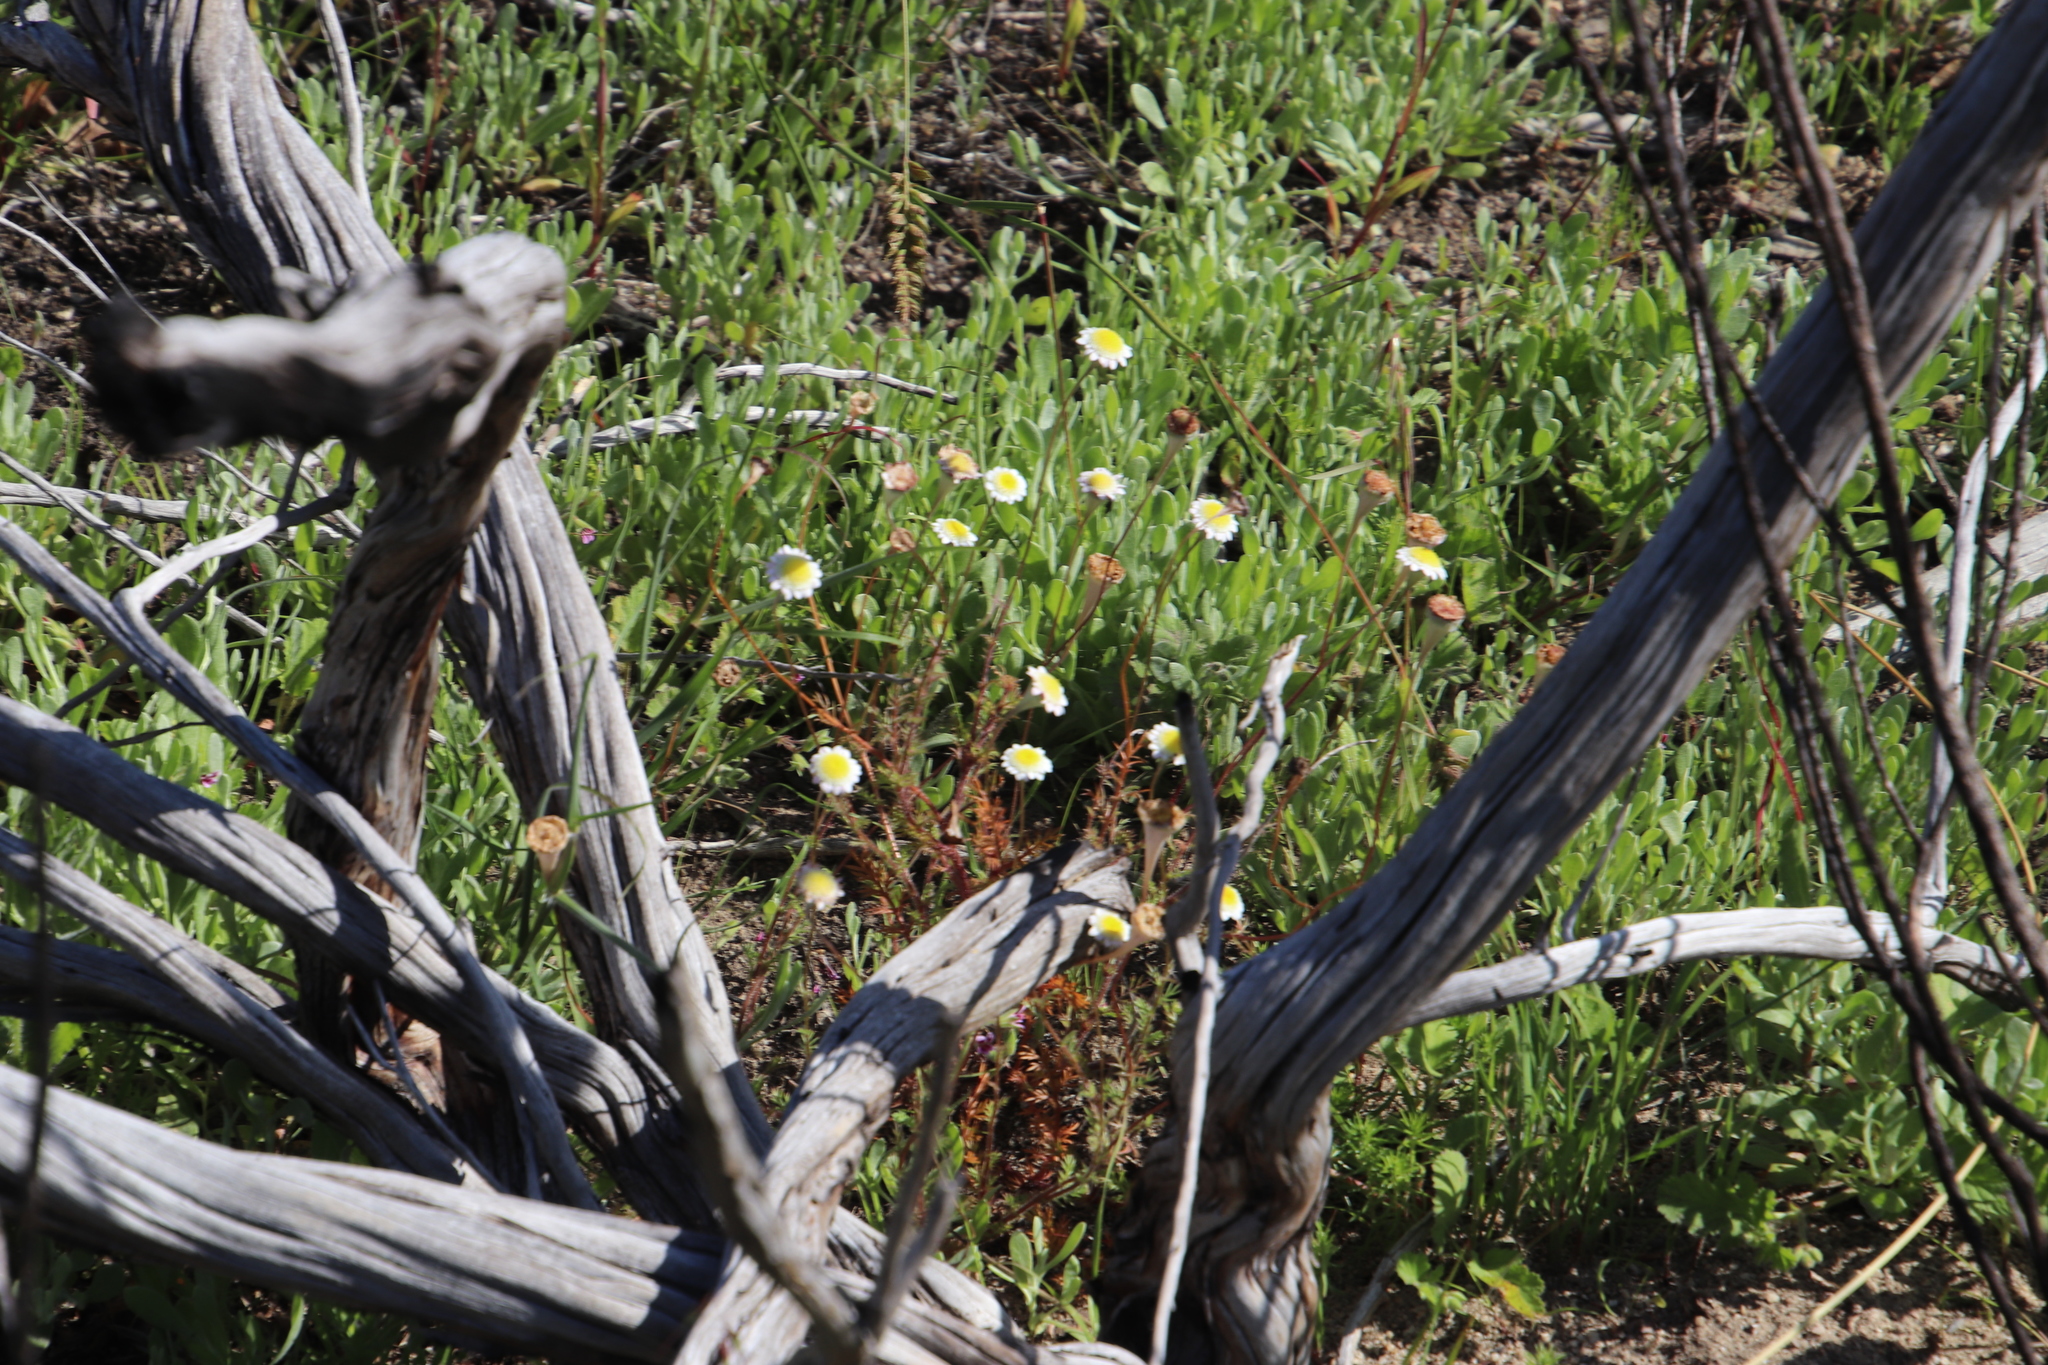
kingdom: Plantae
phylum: Tracheophyta
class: Magnoliopsida
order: Asterales
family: Asteraceae
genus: Cotula
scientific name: Cotula turbinata
